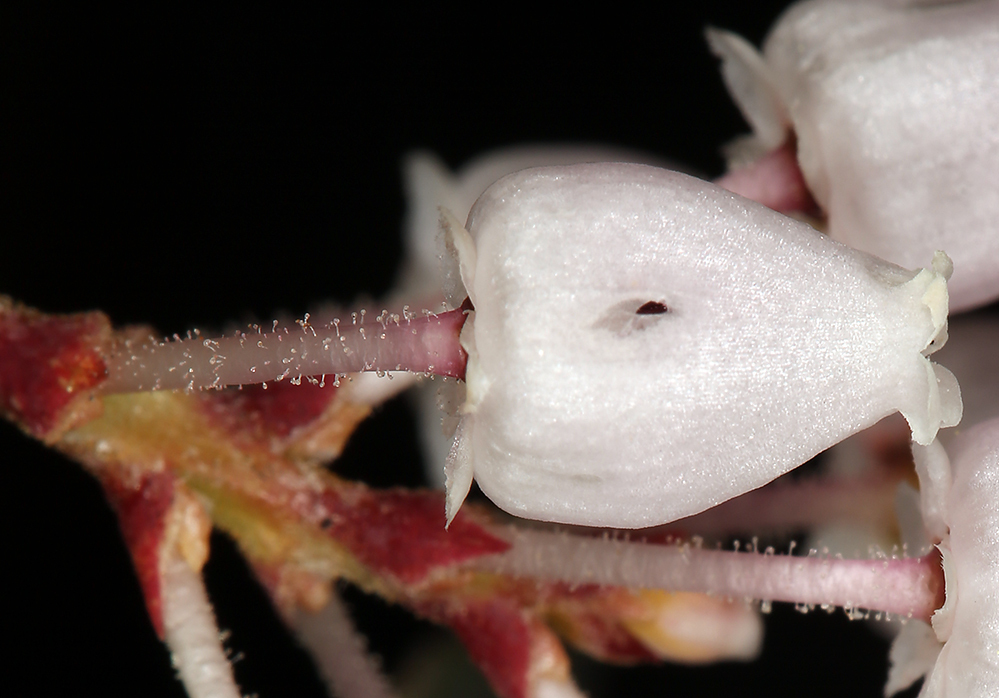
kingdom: Plantae
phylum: Tracheophyta
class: Magnoliopsida
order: Ericales
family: Ericaceae
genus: Arctostaphylos
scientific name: Arctostaphylos viscida
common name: White-leaf manzanita
